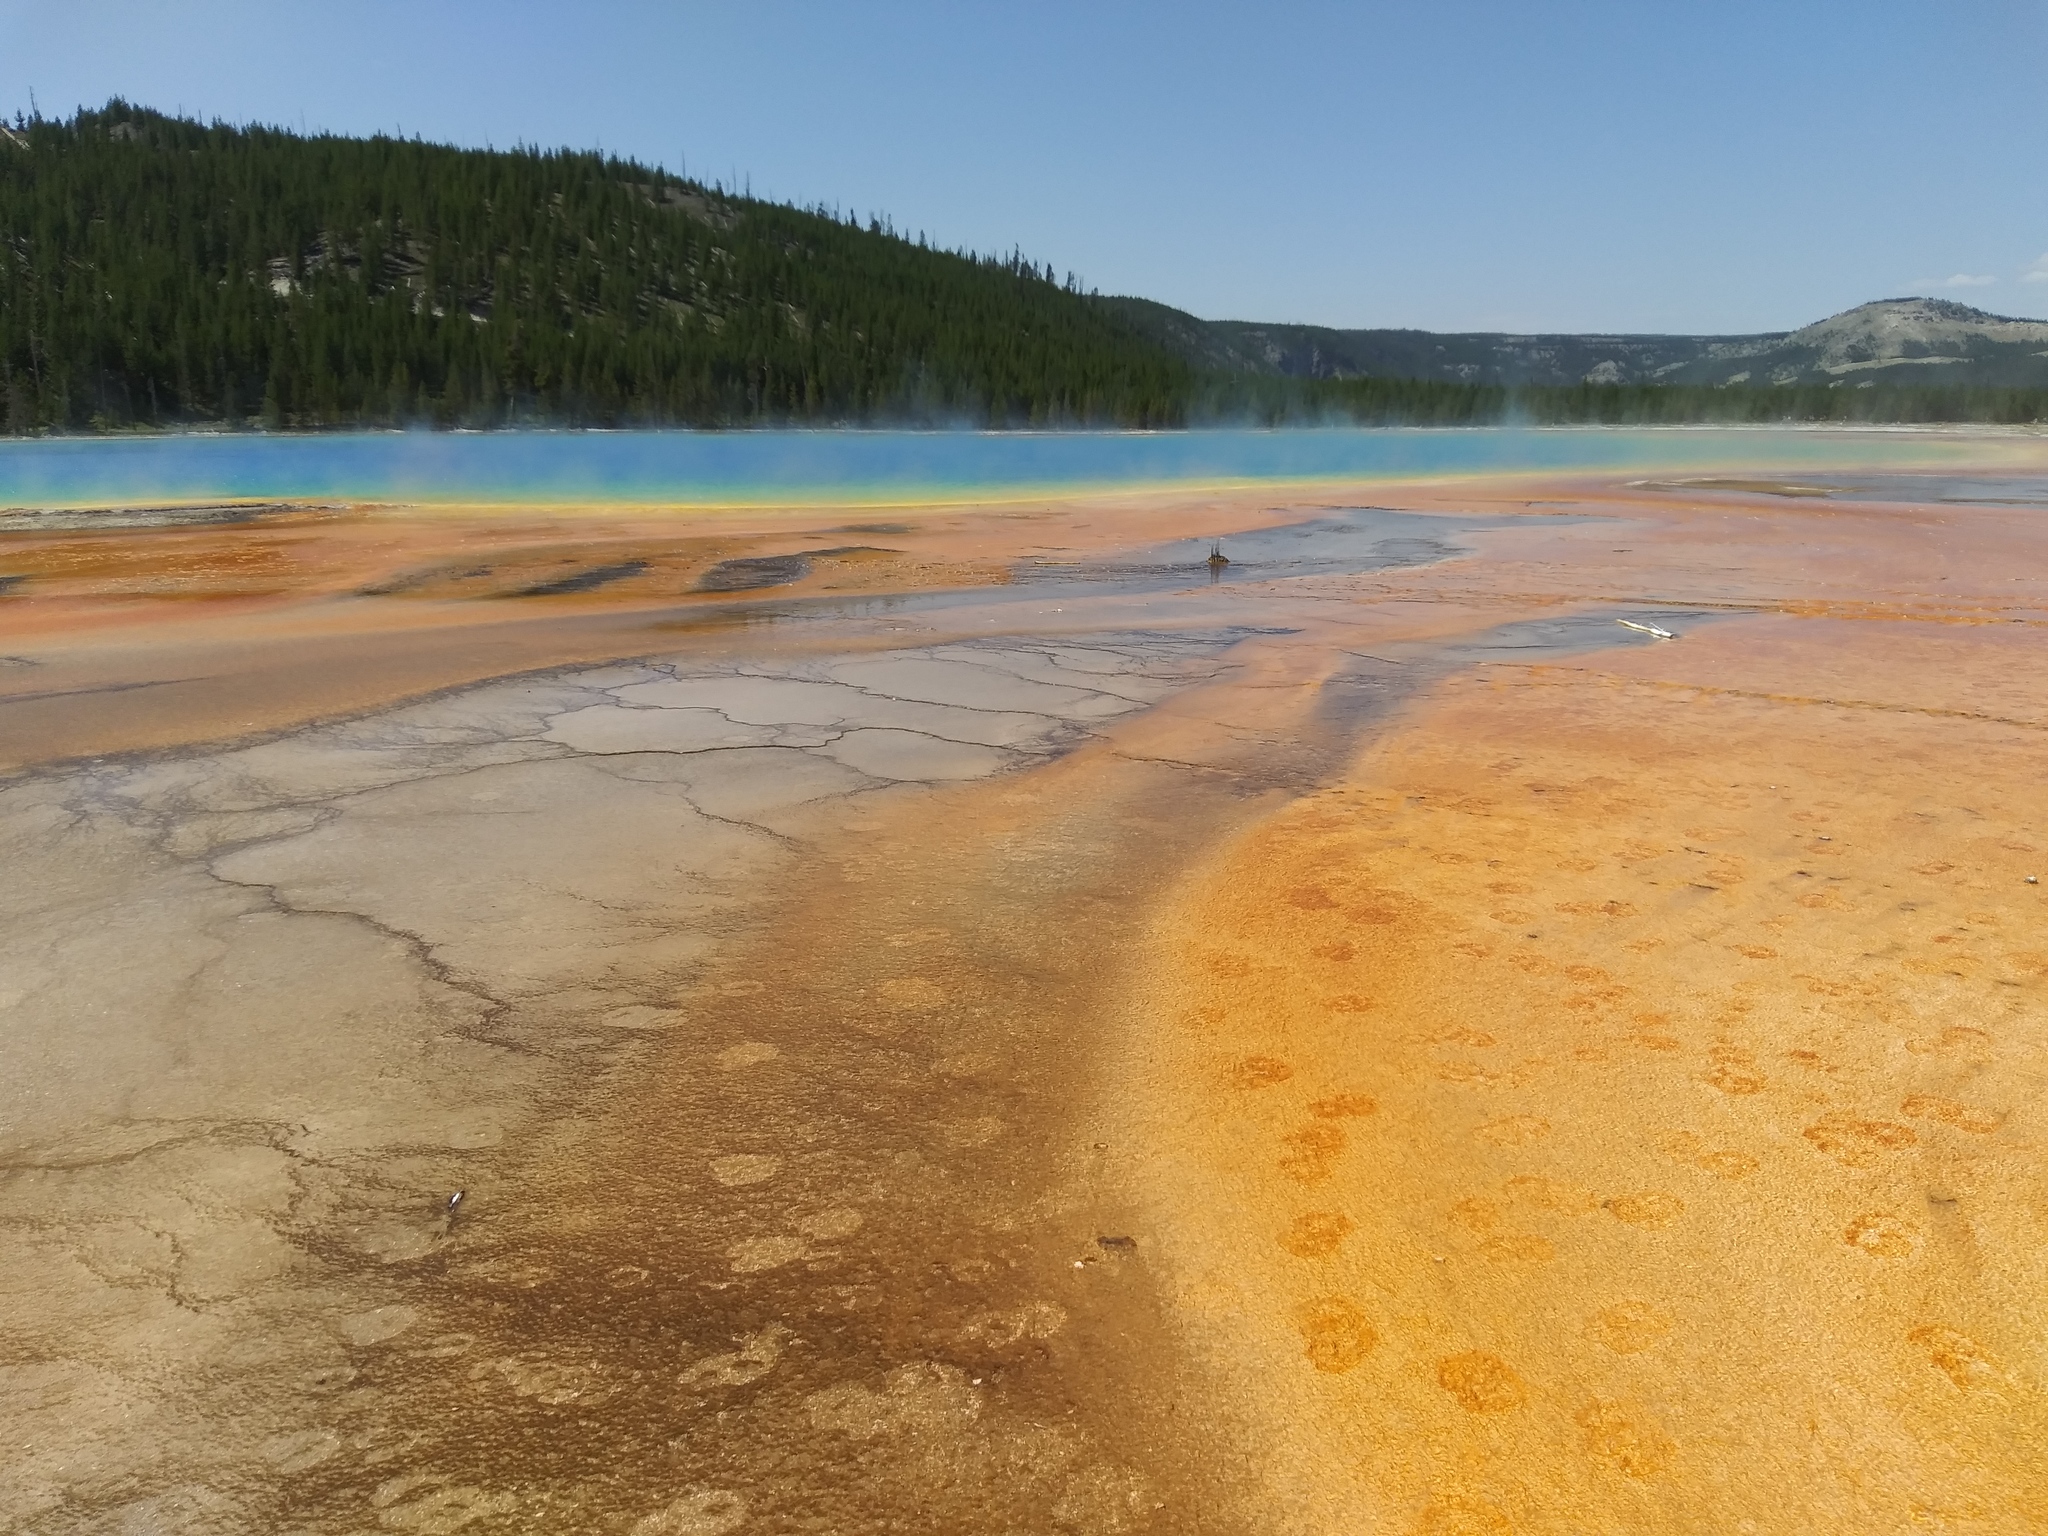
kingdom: Animalia
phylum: Chordata
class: Mammalia
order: Artiodactyla
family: Bovidae
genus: Bison
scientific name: Bison bison
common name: American bison
